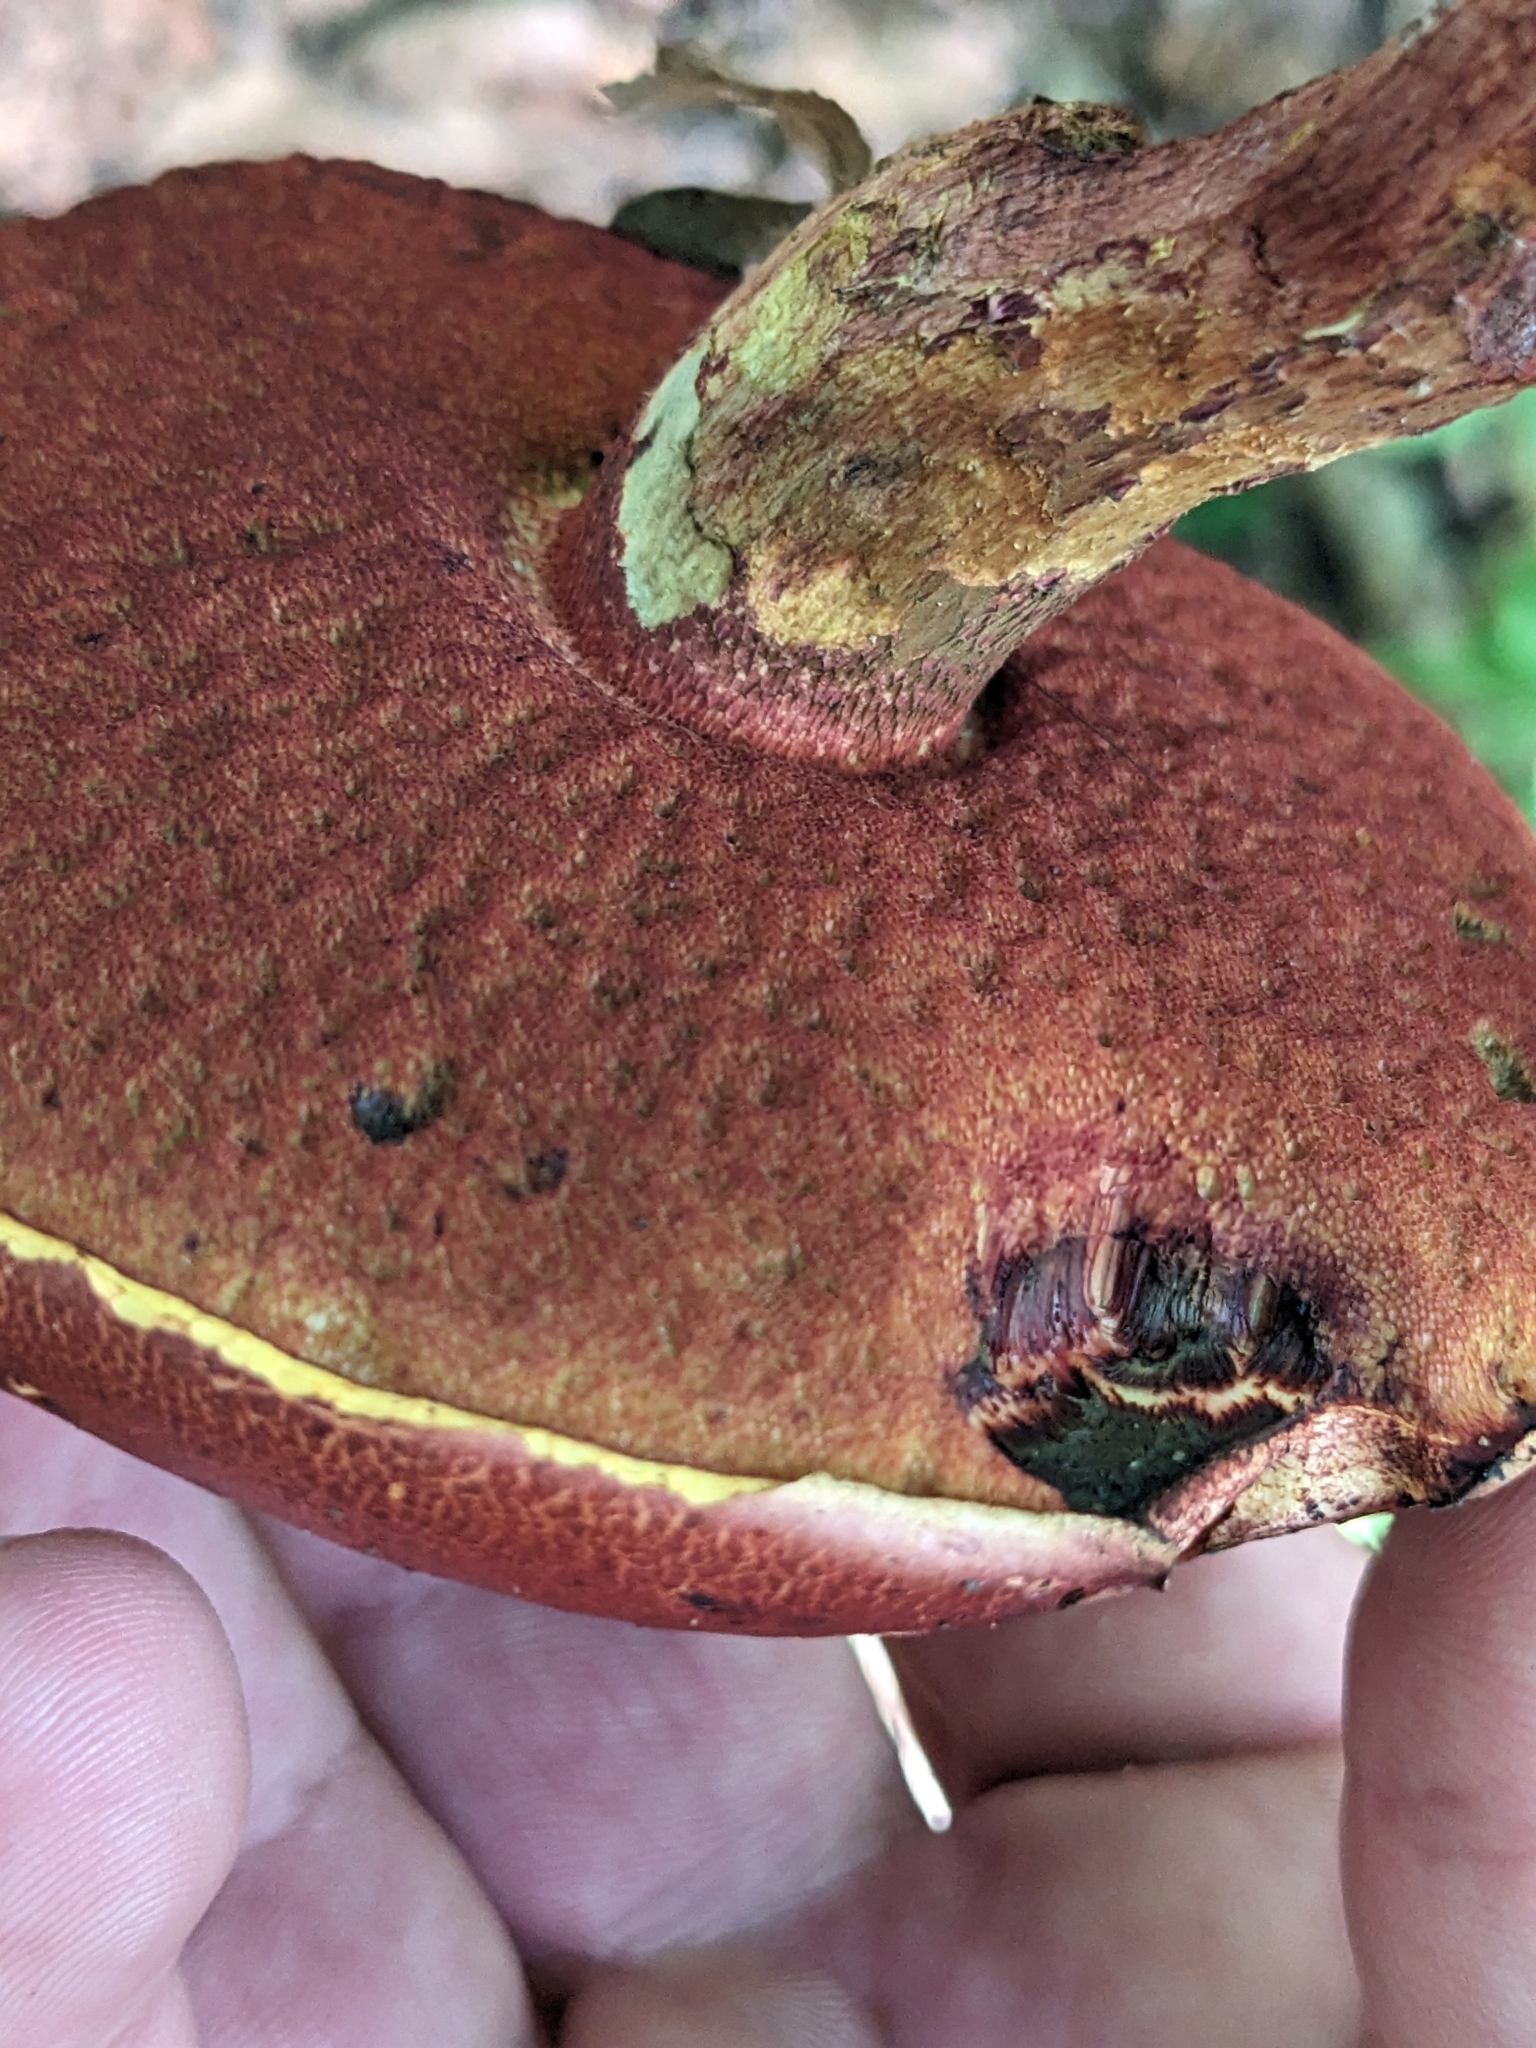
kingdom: Fungi
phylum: Basidiomycota
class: Agaricomycetes
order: Boletales
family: Boletaceae
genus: Butyriboletus
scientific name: Butyriboletus frostii
